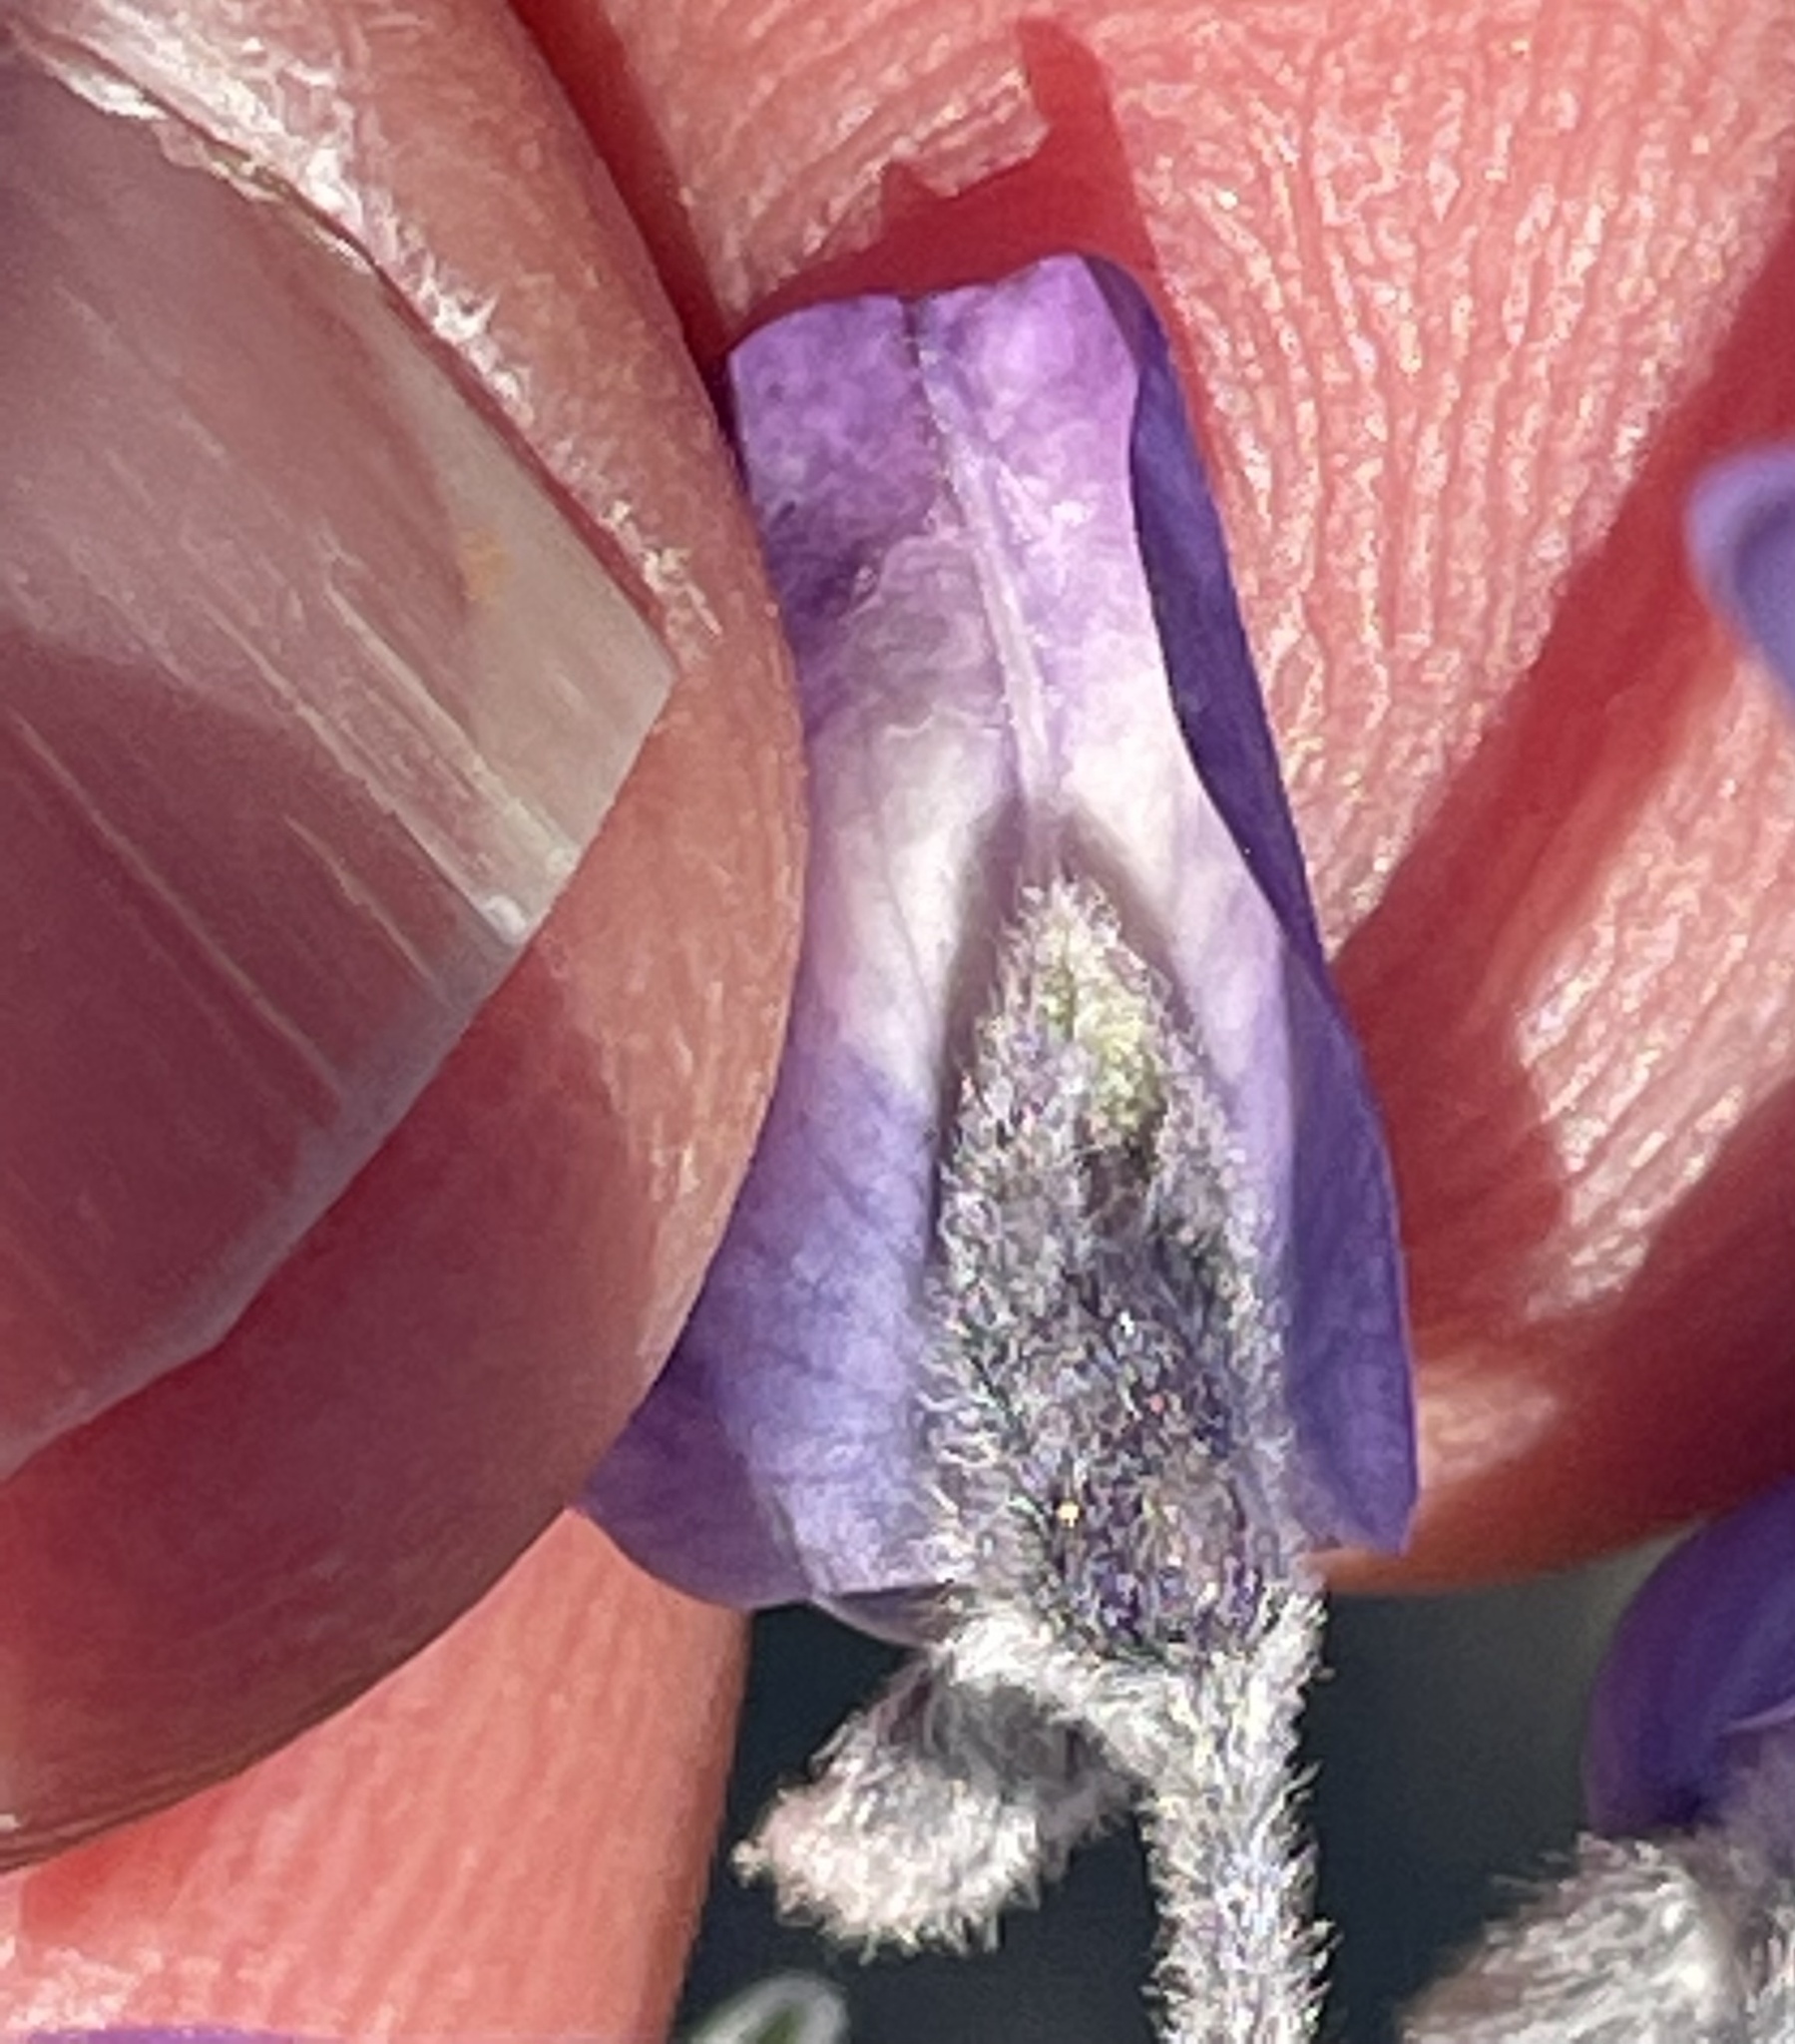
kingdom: Plantae
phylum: Tracheophyta
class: Magnoliopsida
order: Fabales
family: Fabaceae
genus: Lupinus
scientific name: Lupinus chamissonis
